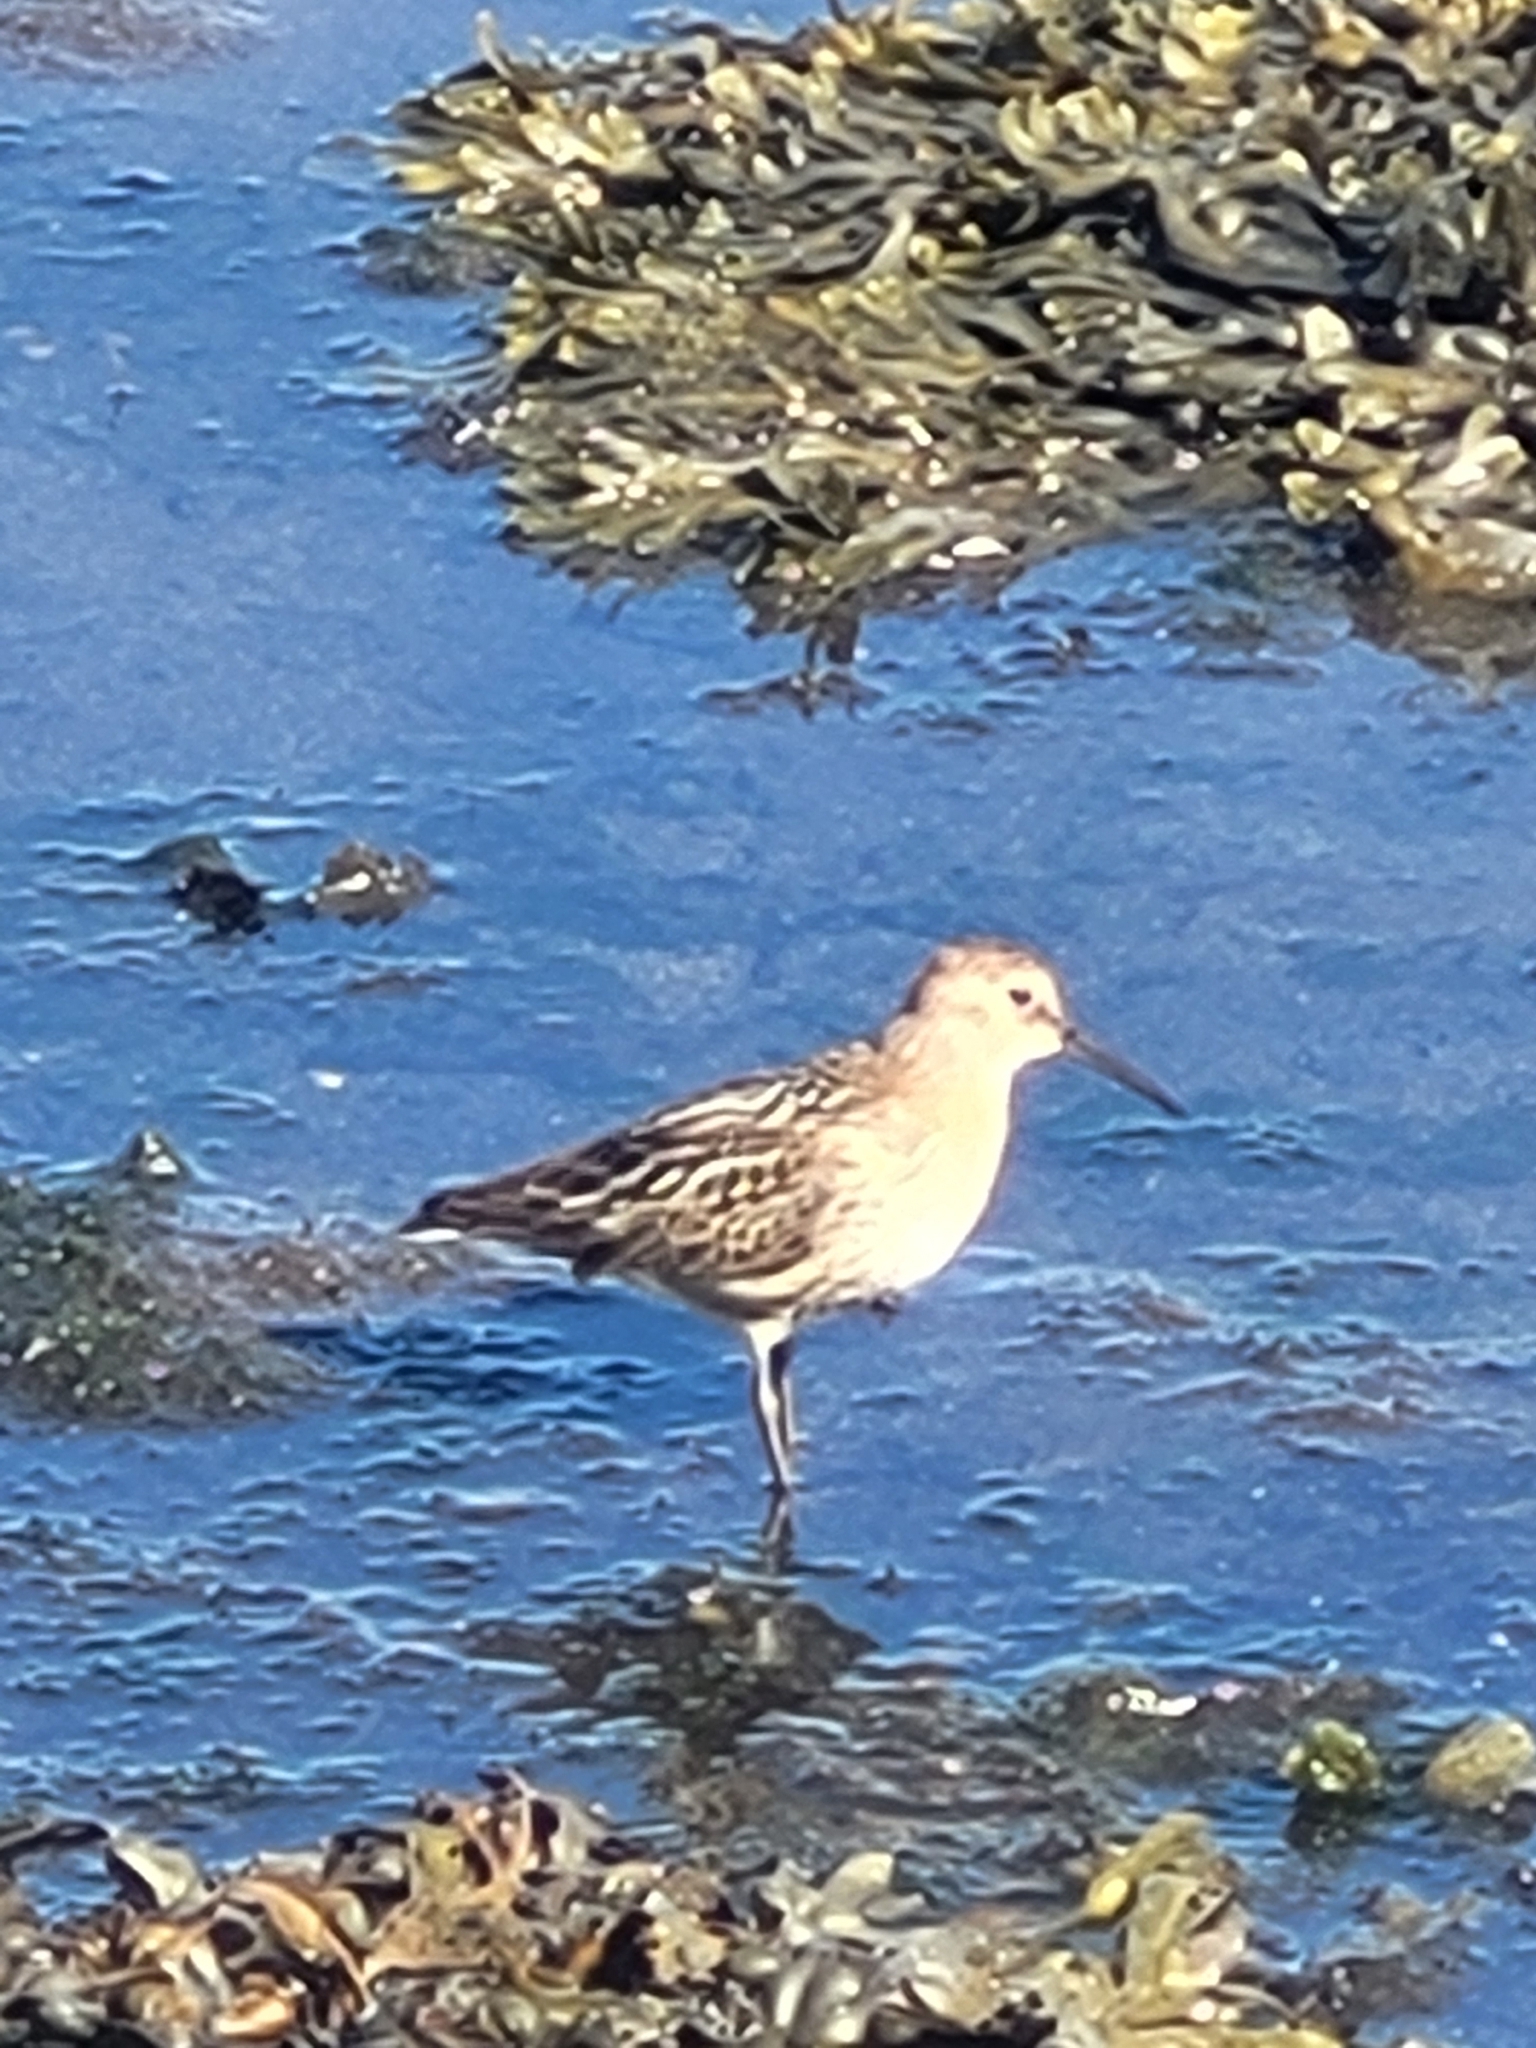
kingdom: Animalia
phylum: Chordata
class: Aves
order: Charadriiformes
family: Scolopacidae
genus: Calidris
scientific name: Calidris alpina
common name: Dunlin
